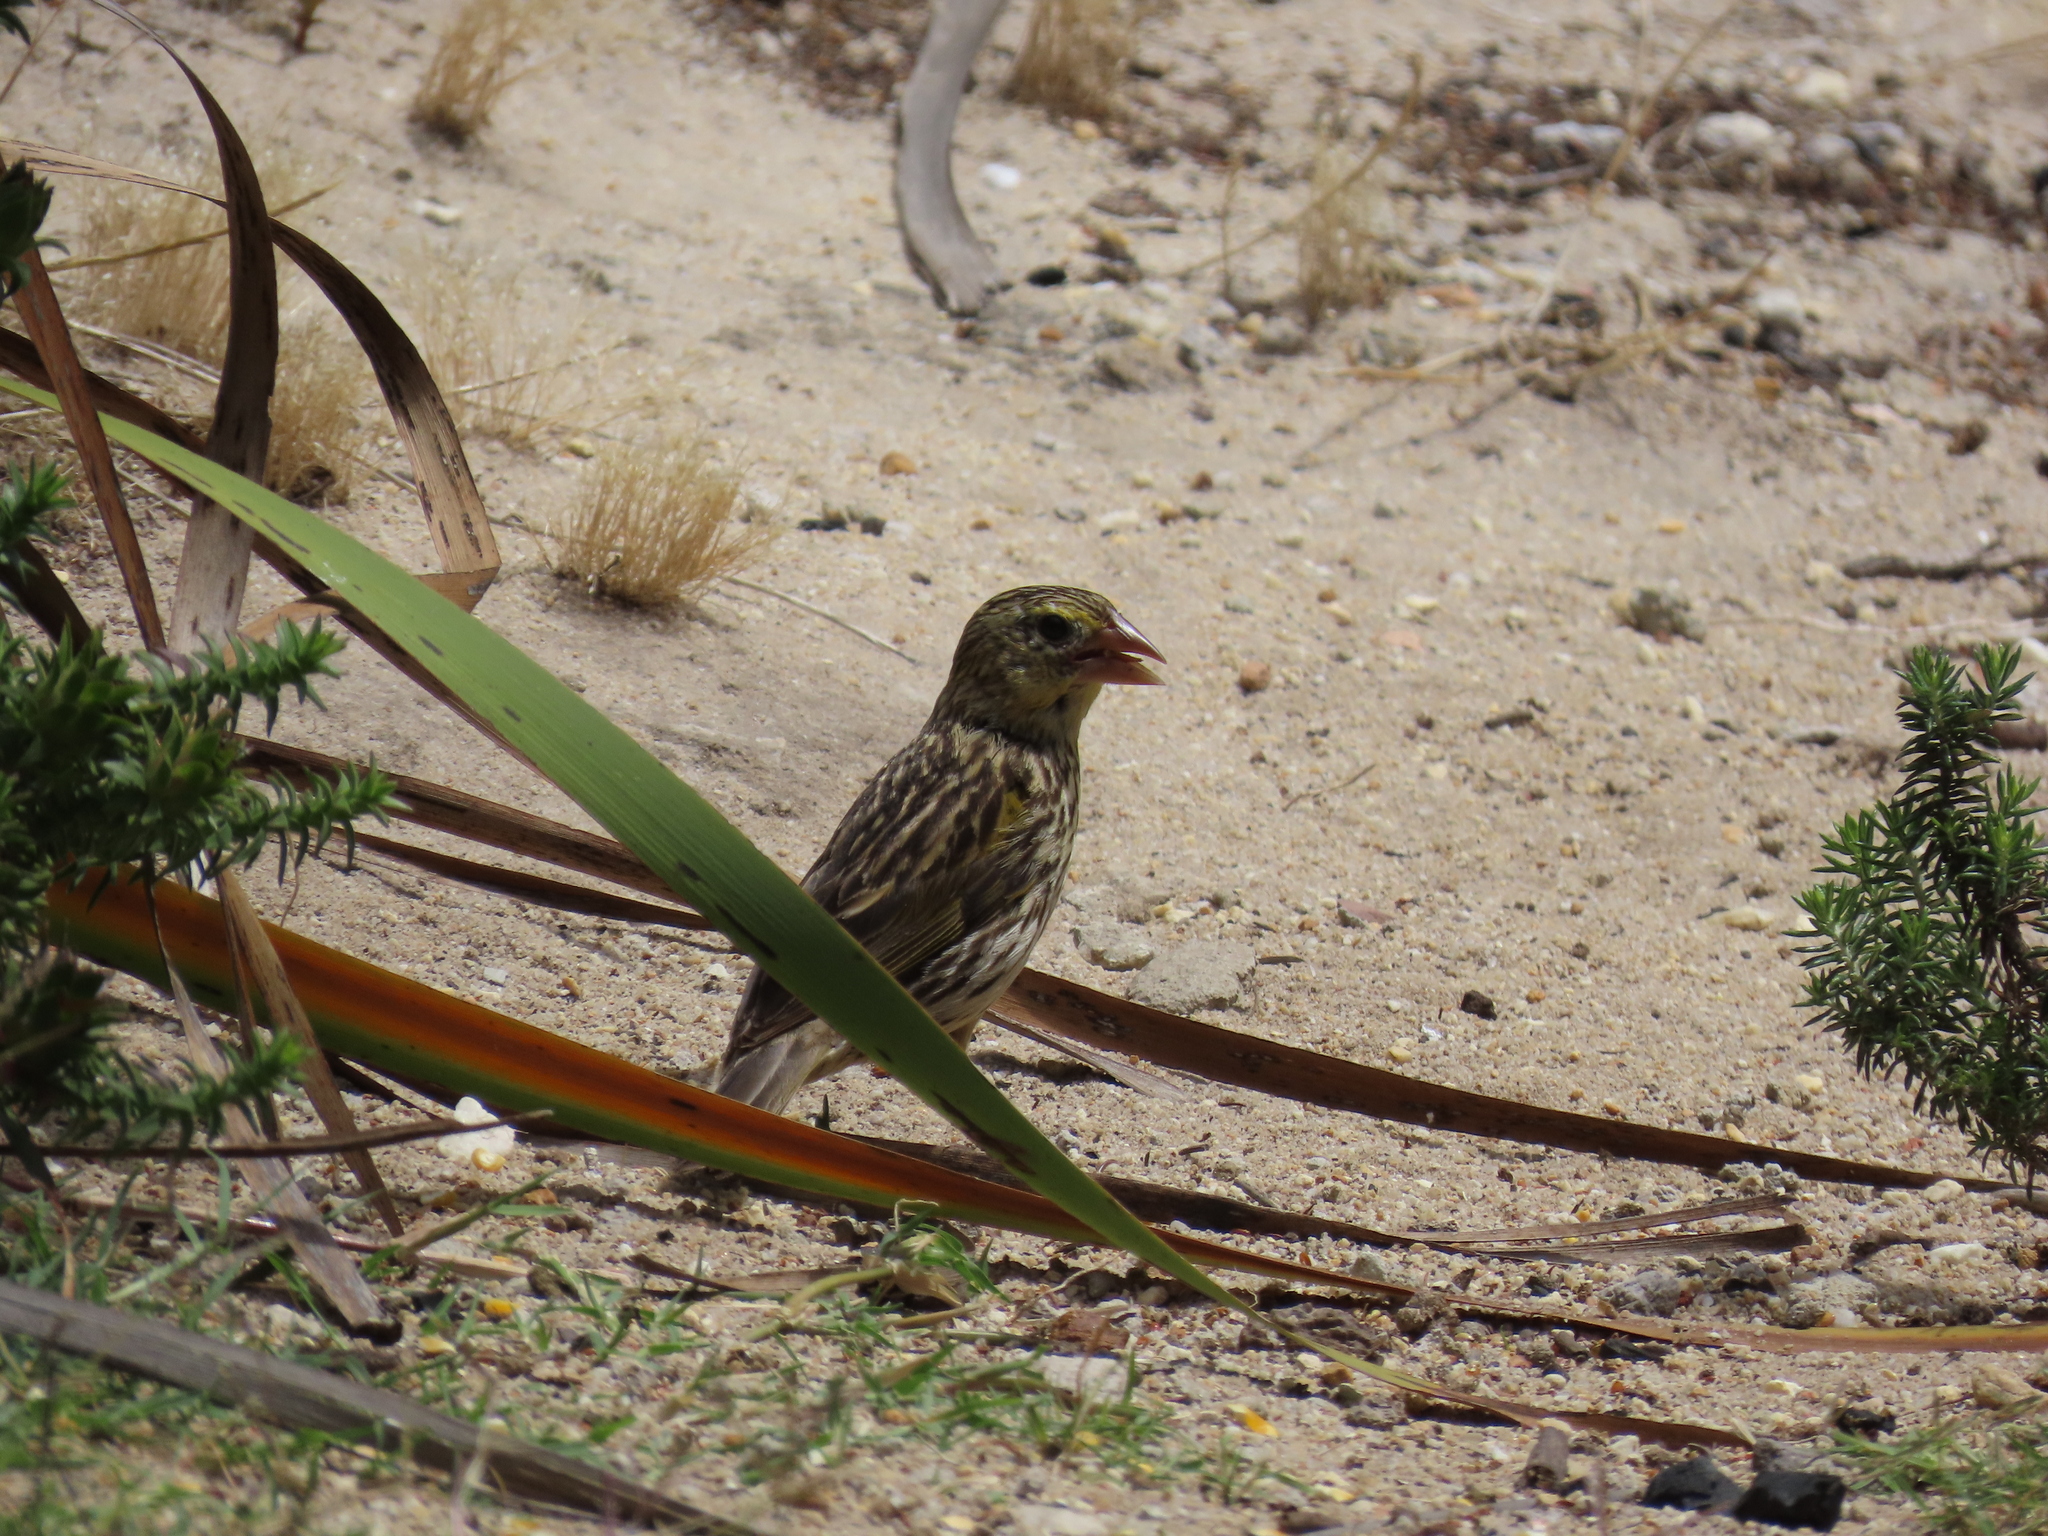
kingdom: Animalia
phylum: Chordata
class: Aves
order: Passeriformes
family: Ploceidae
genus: Euplectes
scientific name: Euplectes capensis
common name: Yellow bishop
